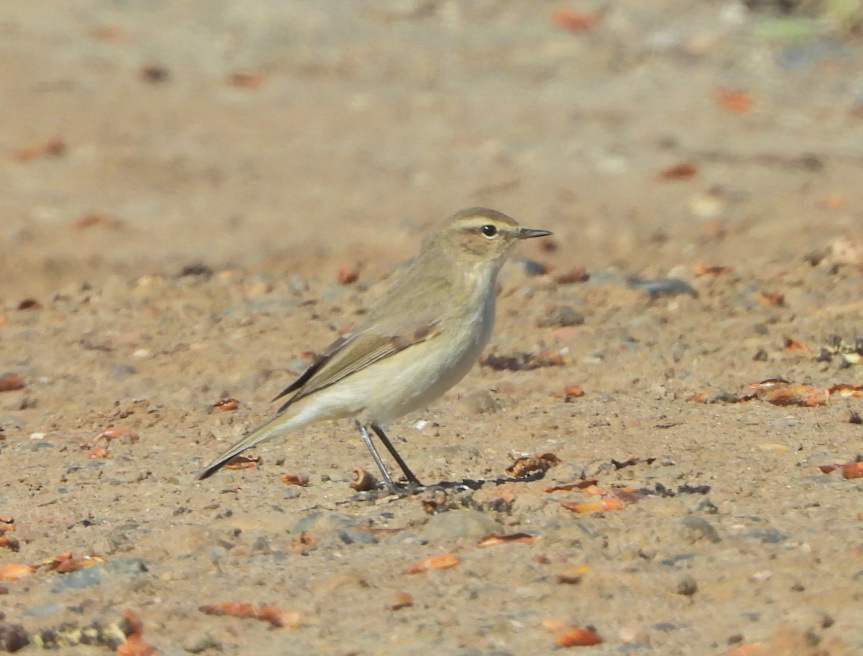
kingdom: Animalia
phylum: Chordata
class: Aves
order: Passeriformes
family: Phylloscopidae
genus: Phylloscopus
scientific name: Phylloscopus collybita
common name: Common chiffchaff
